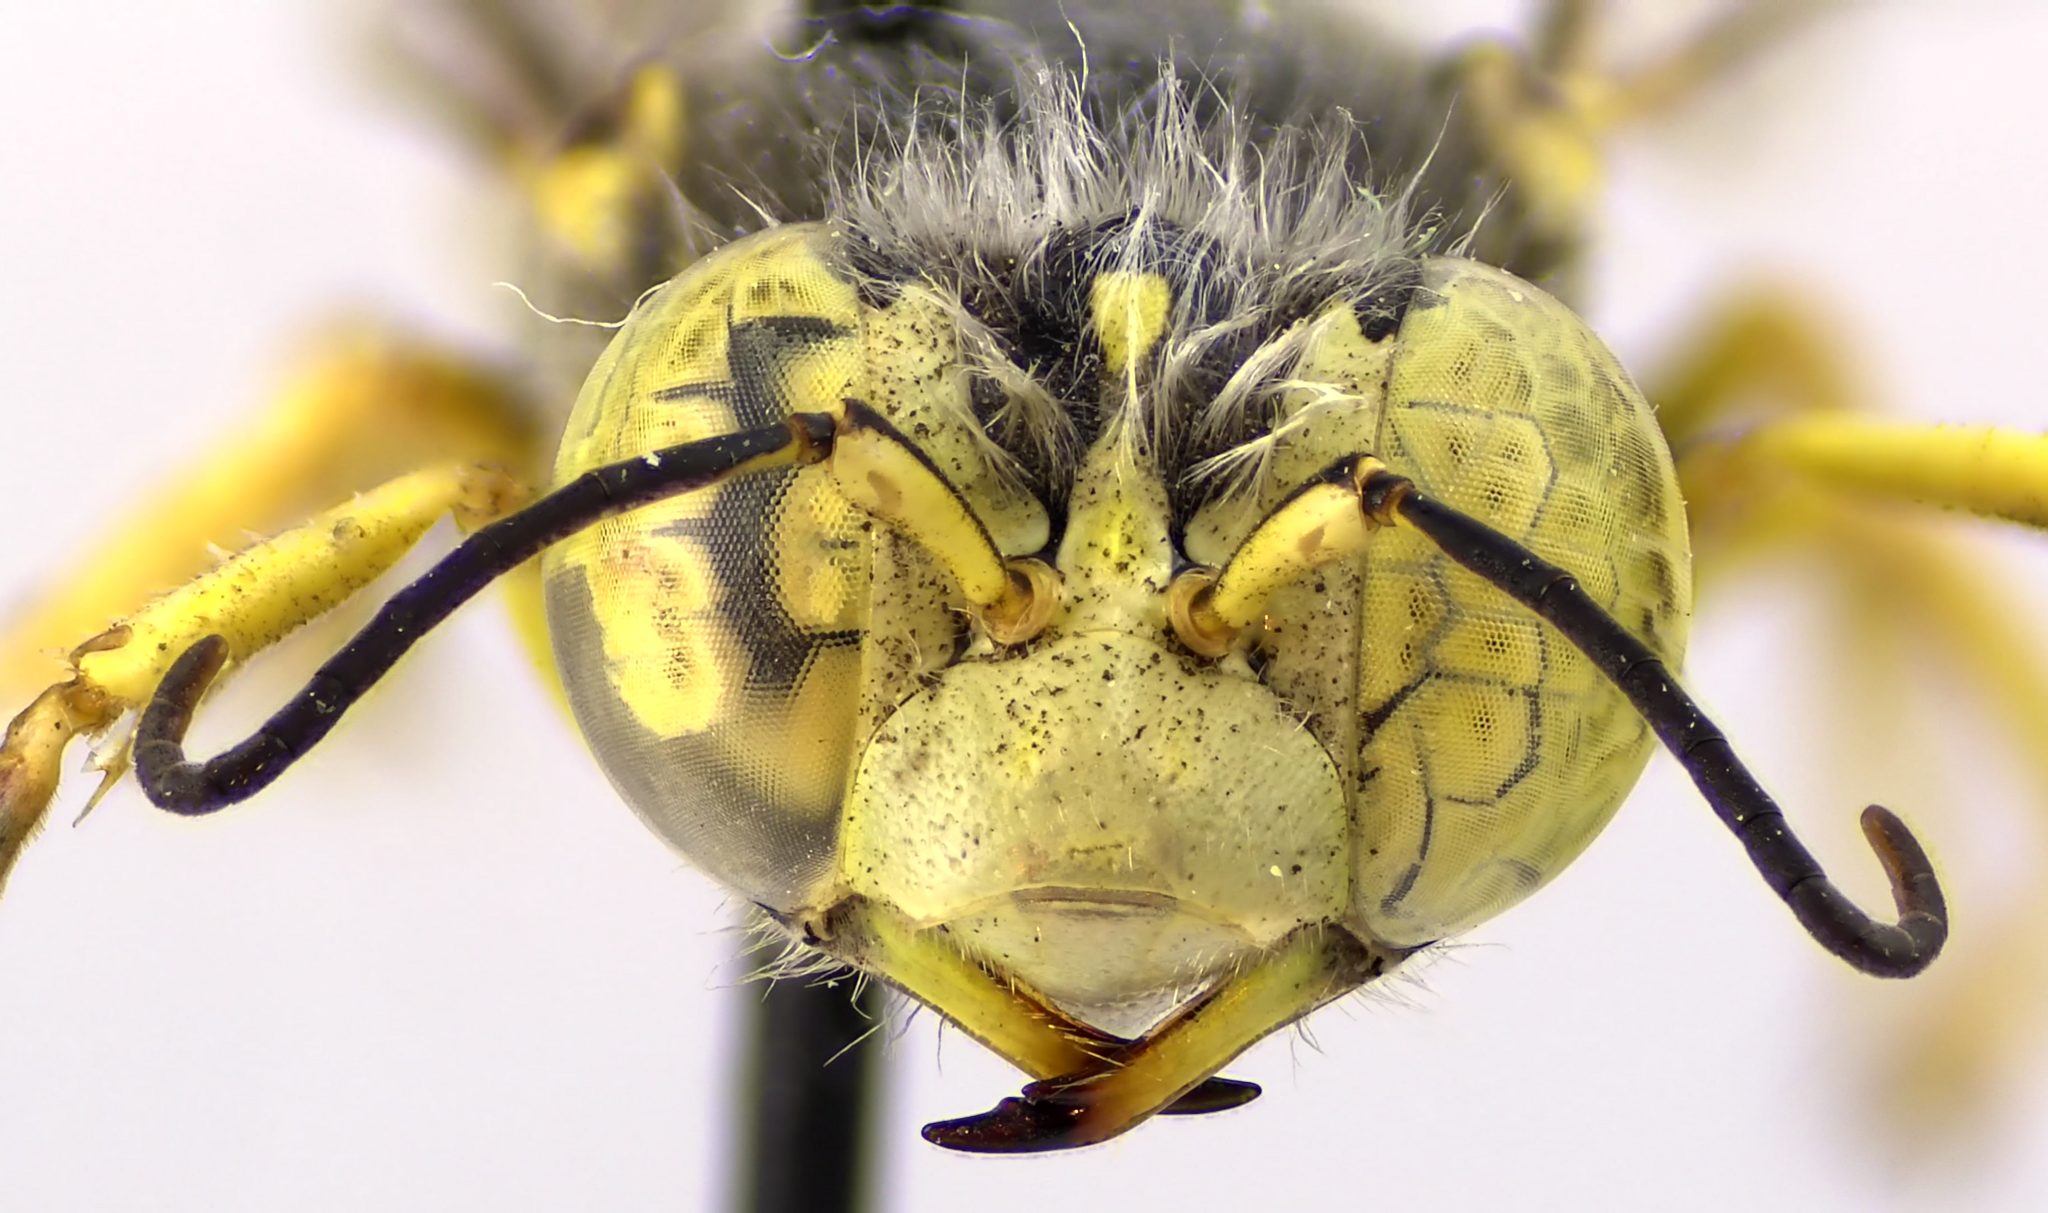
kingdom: Animalia
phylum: Arthropoda
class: Insecta
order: Hymenoptera
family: Crabronidae
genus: Bembix
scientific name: Bembix americana
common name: American sand wasp
